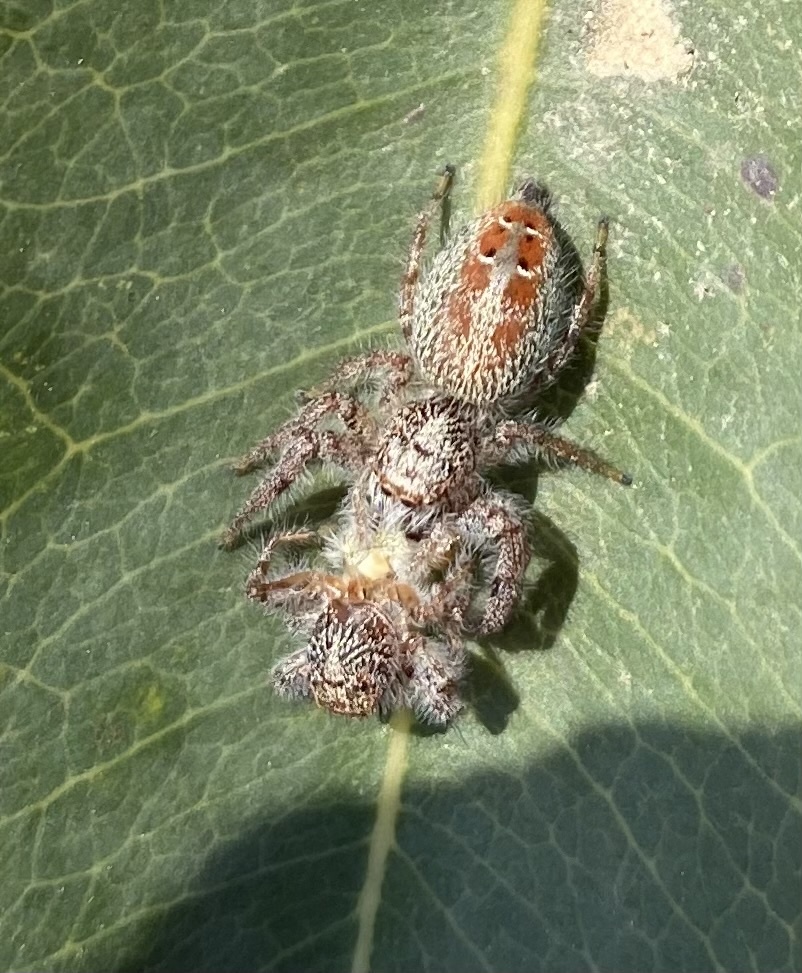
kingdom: Animalia
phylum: Arthropoda
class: Arachnida
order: Araneae
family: Salticidae
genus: Thyene
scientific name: Thyene coccineovittata
